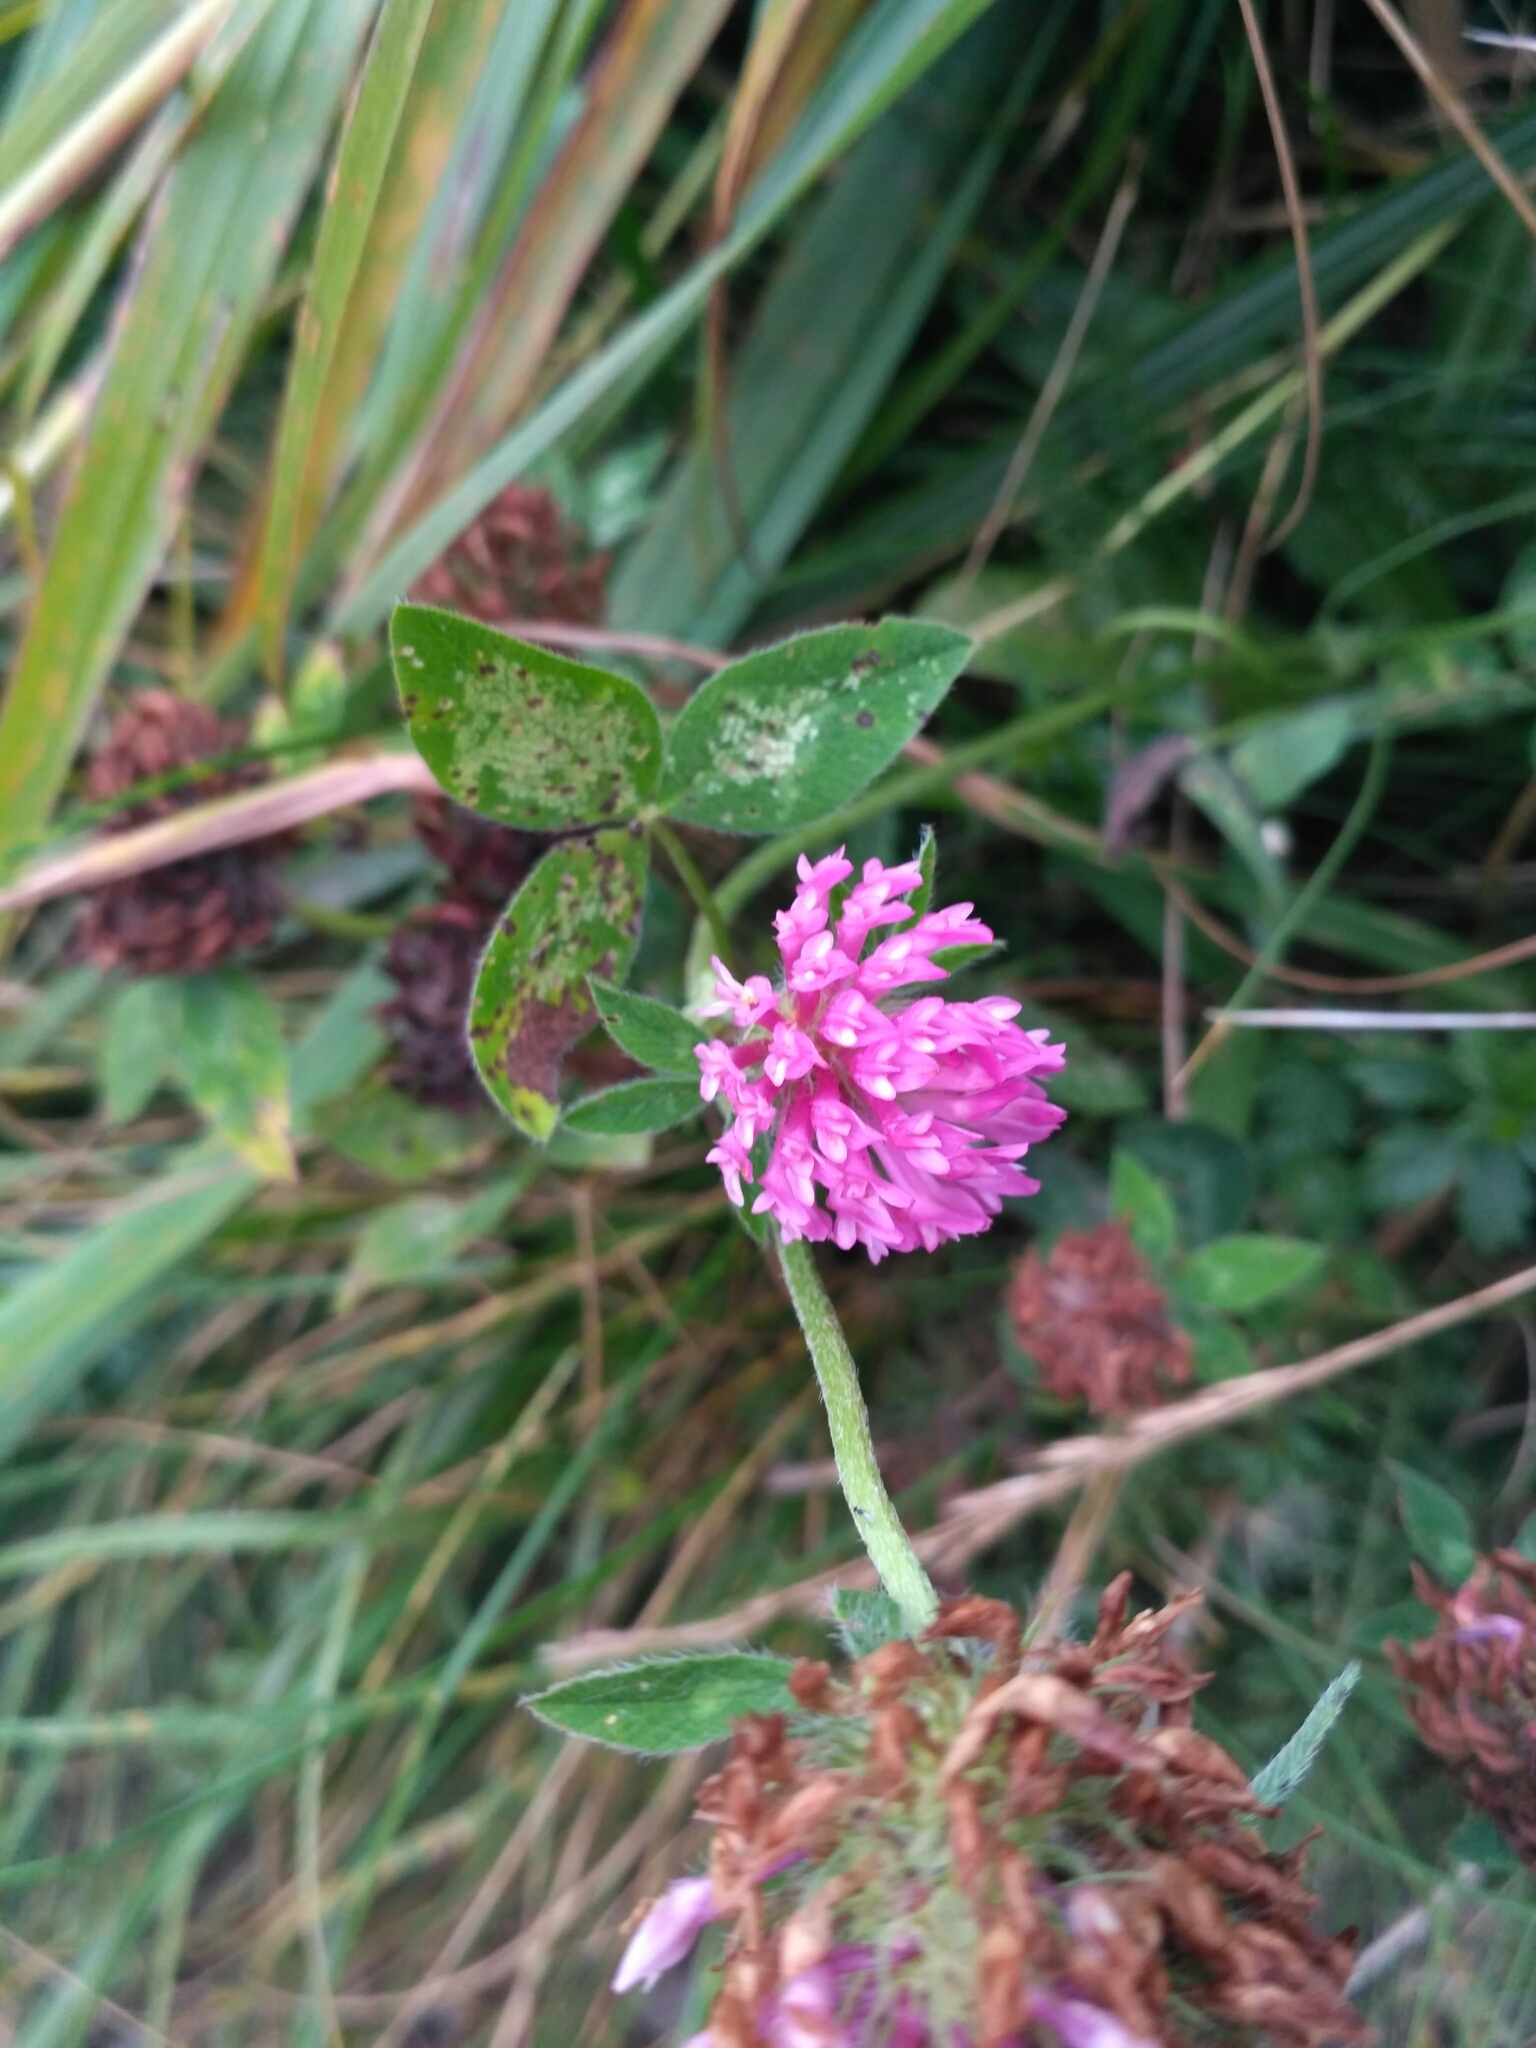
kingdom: Plantae
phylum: Tracheophyta
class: Magnoliopsida
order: Fabales
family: Fabaceae
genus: Trifolium
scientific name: Trifolium pratense
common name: Red clover
